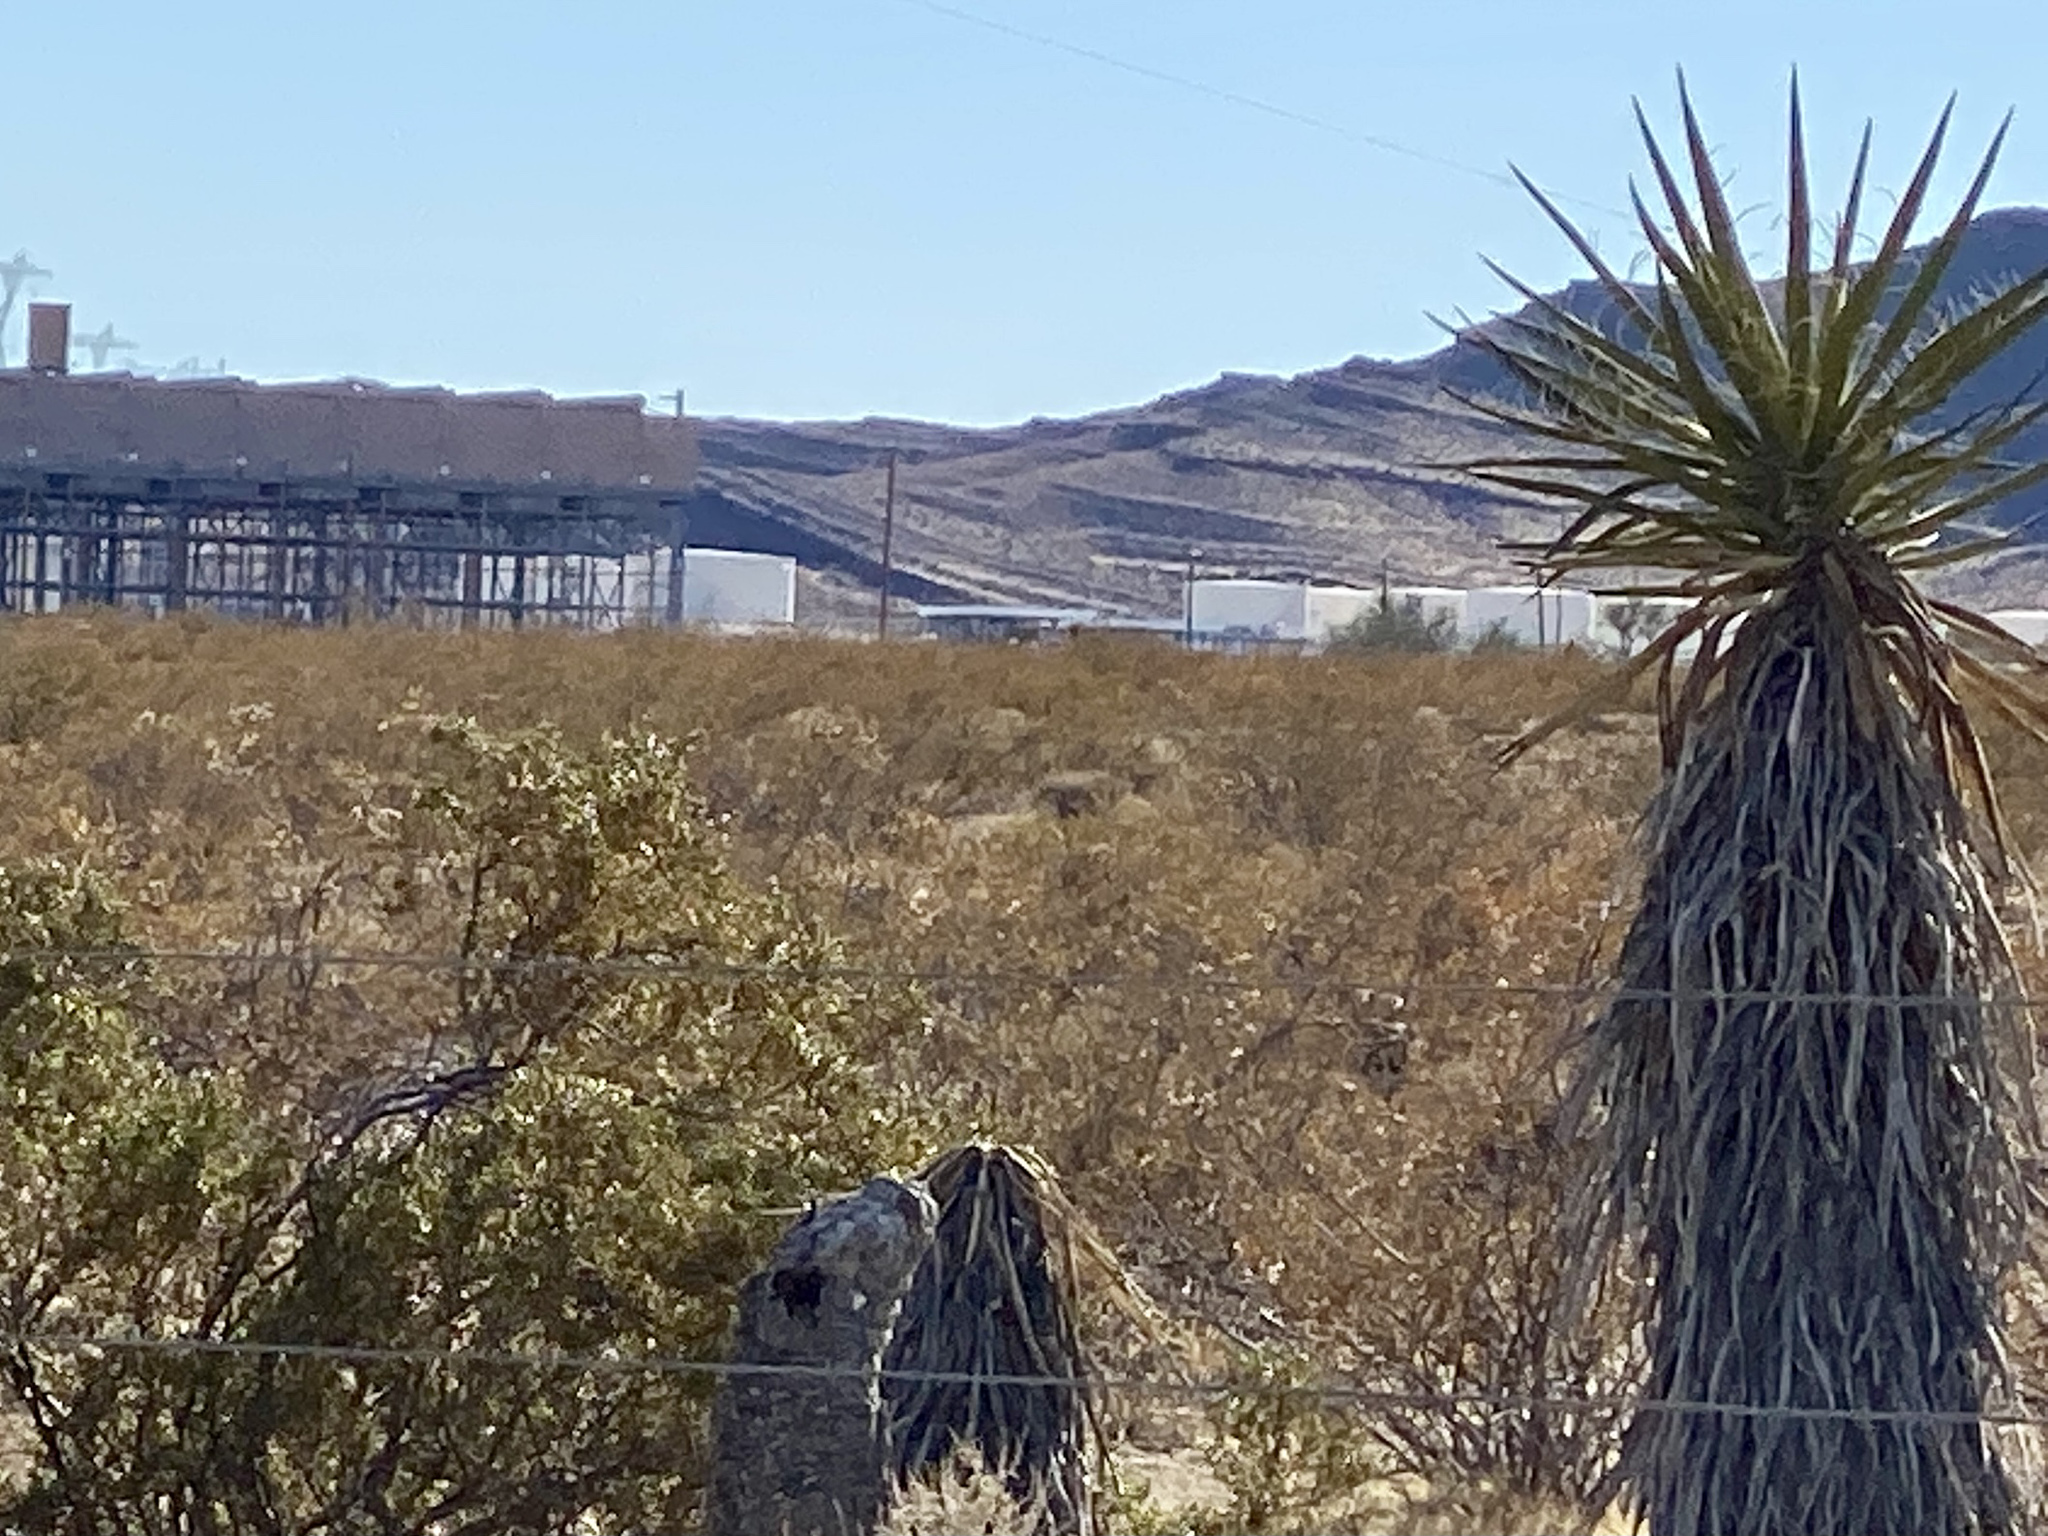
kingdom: Plantae
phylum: Tracheophyta
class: Liliopsida
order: Asparagales
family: Asparagaceae
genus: Yucca
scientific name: Yucca schidigera
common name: Mojave yucca
